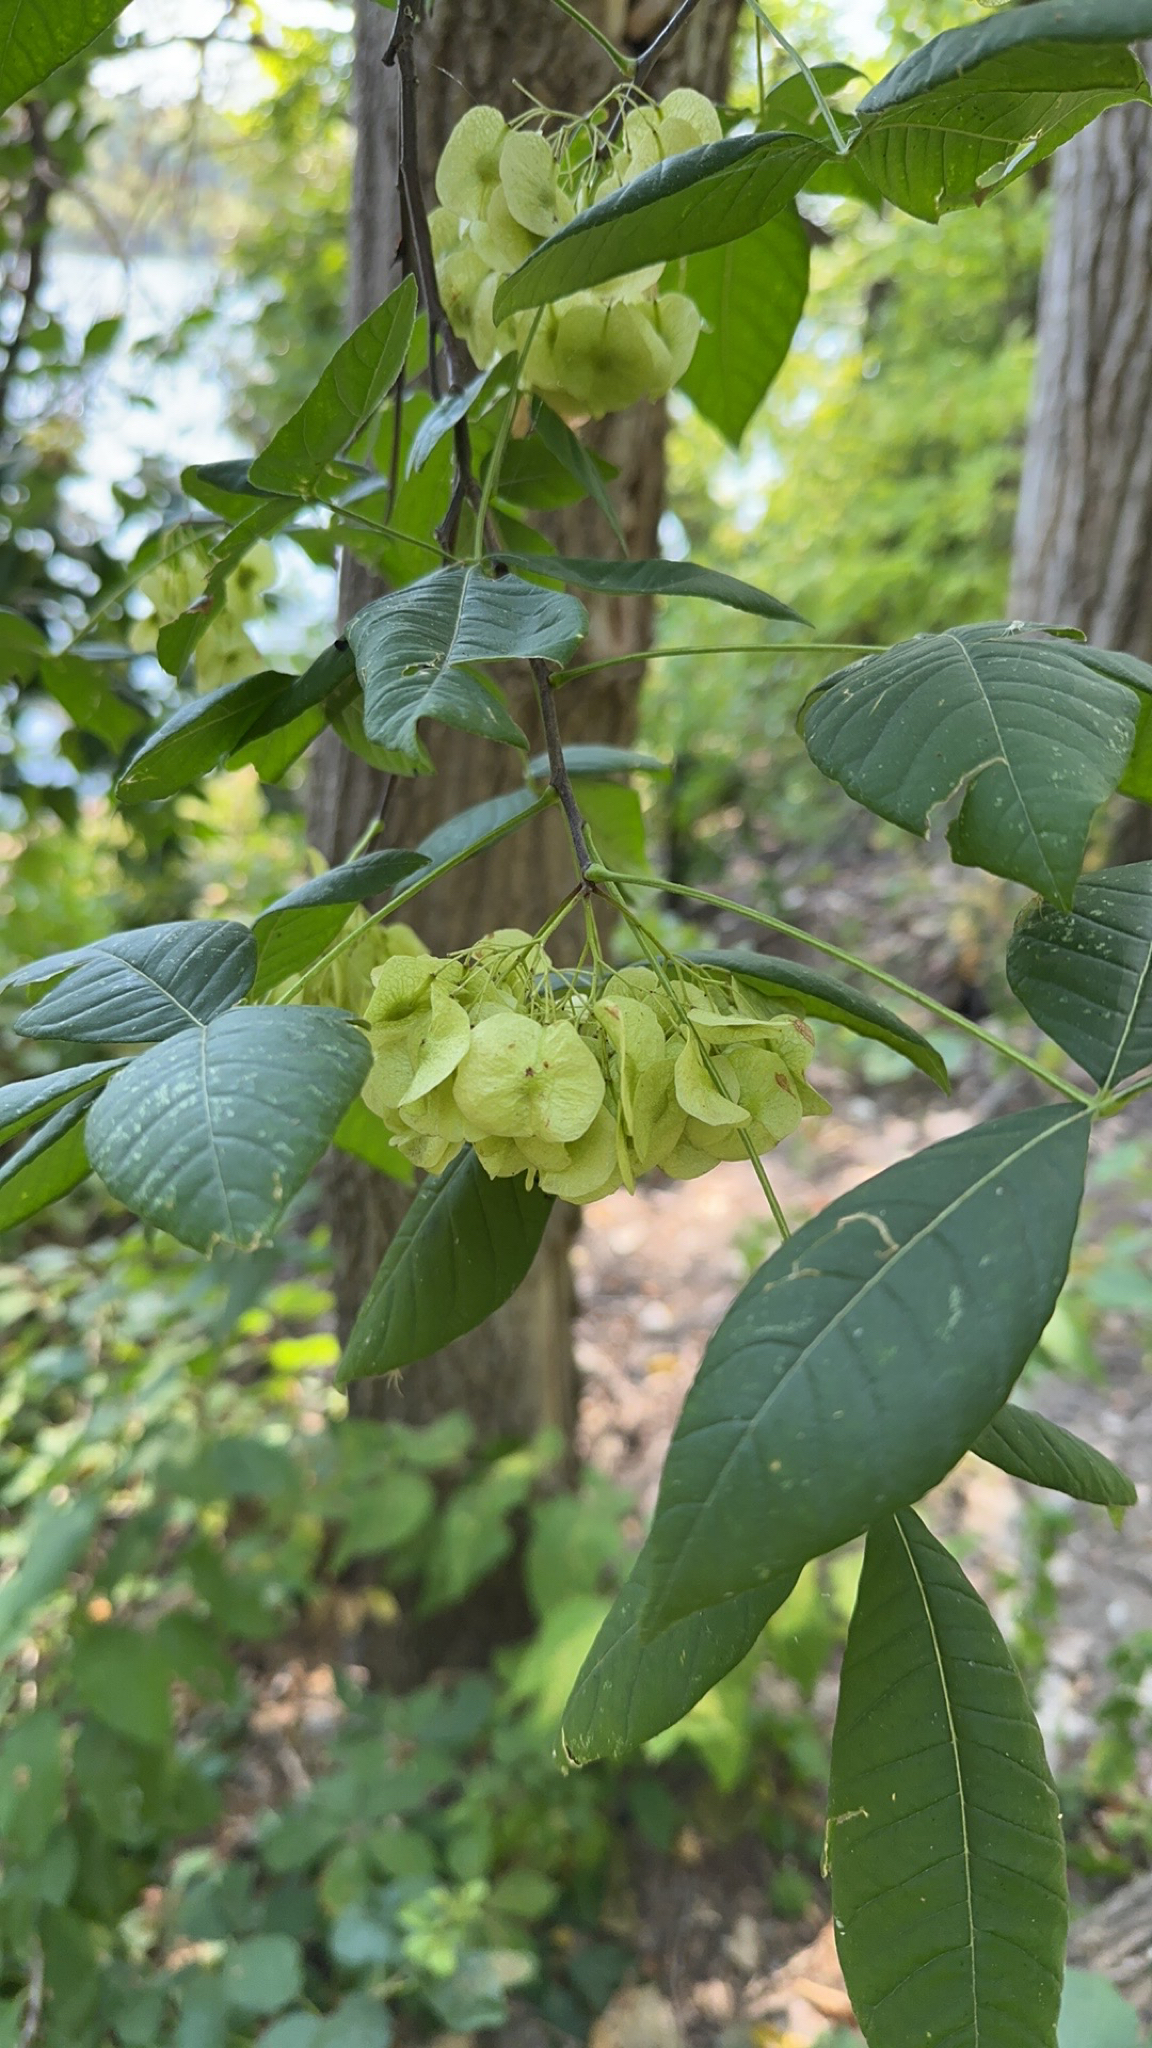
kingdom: Plantae
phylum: Tracheophyta
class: Magnoliopsida
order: Sapindales
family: Rutaceae
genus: Ptelea
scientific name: Ptelea trifoliata
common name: Common hop-tree
